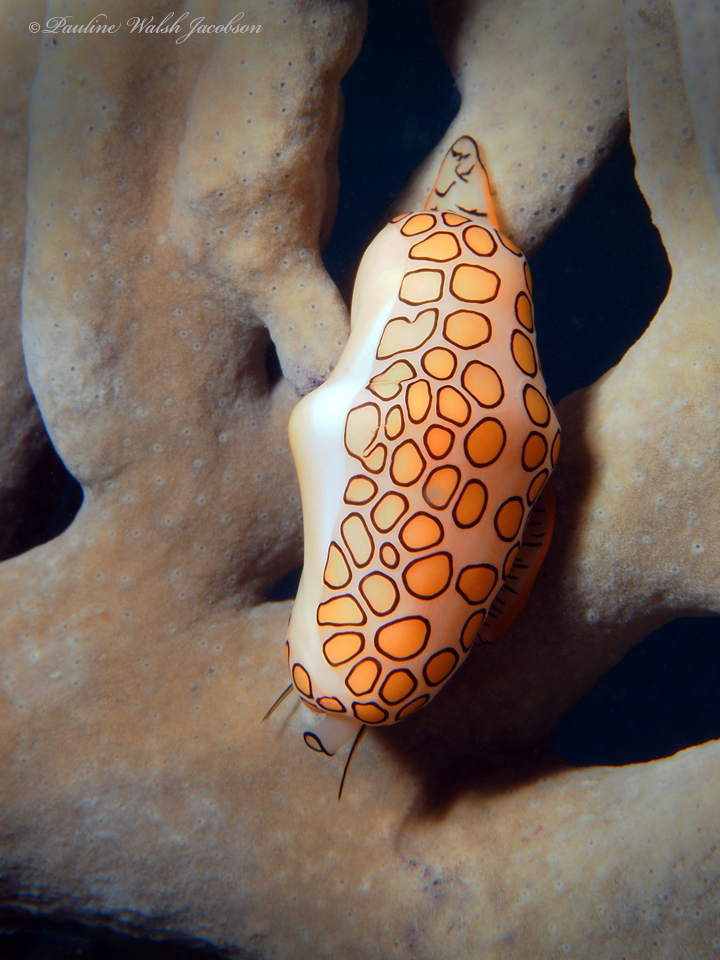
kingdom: Animalia
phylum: Mollusca
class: Gastropoda
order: Littorinimorpha
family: Ovulidae
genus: Cyphoma
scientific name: Cyphoma gibbosum
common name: Flamingo tongue
